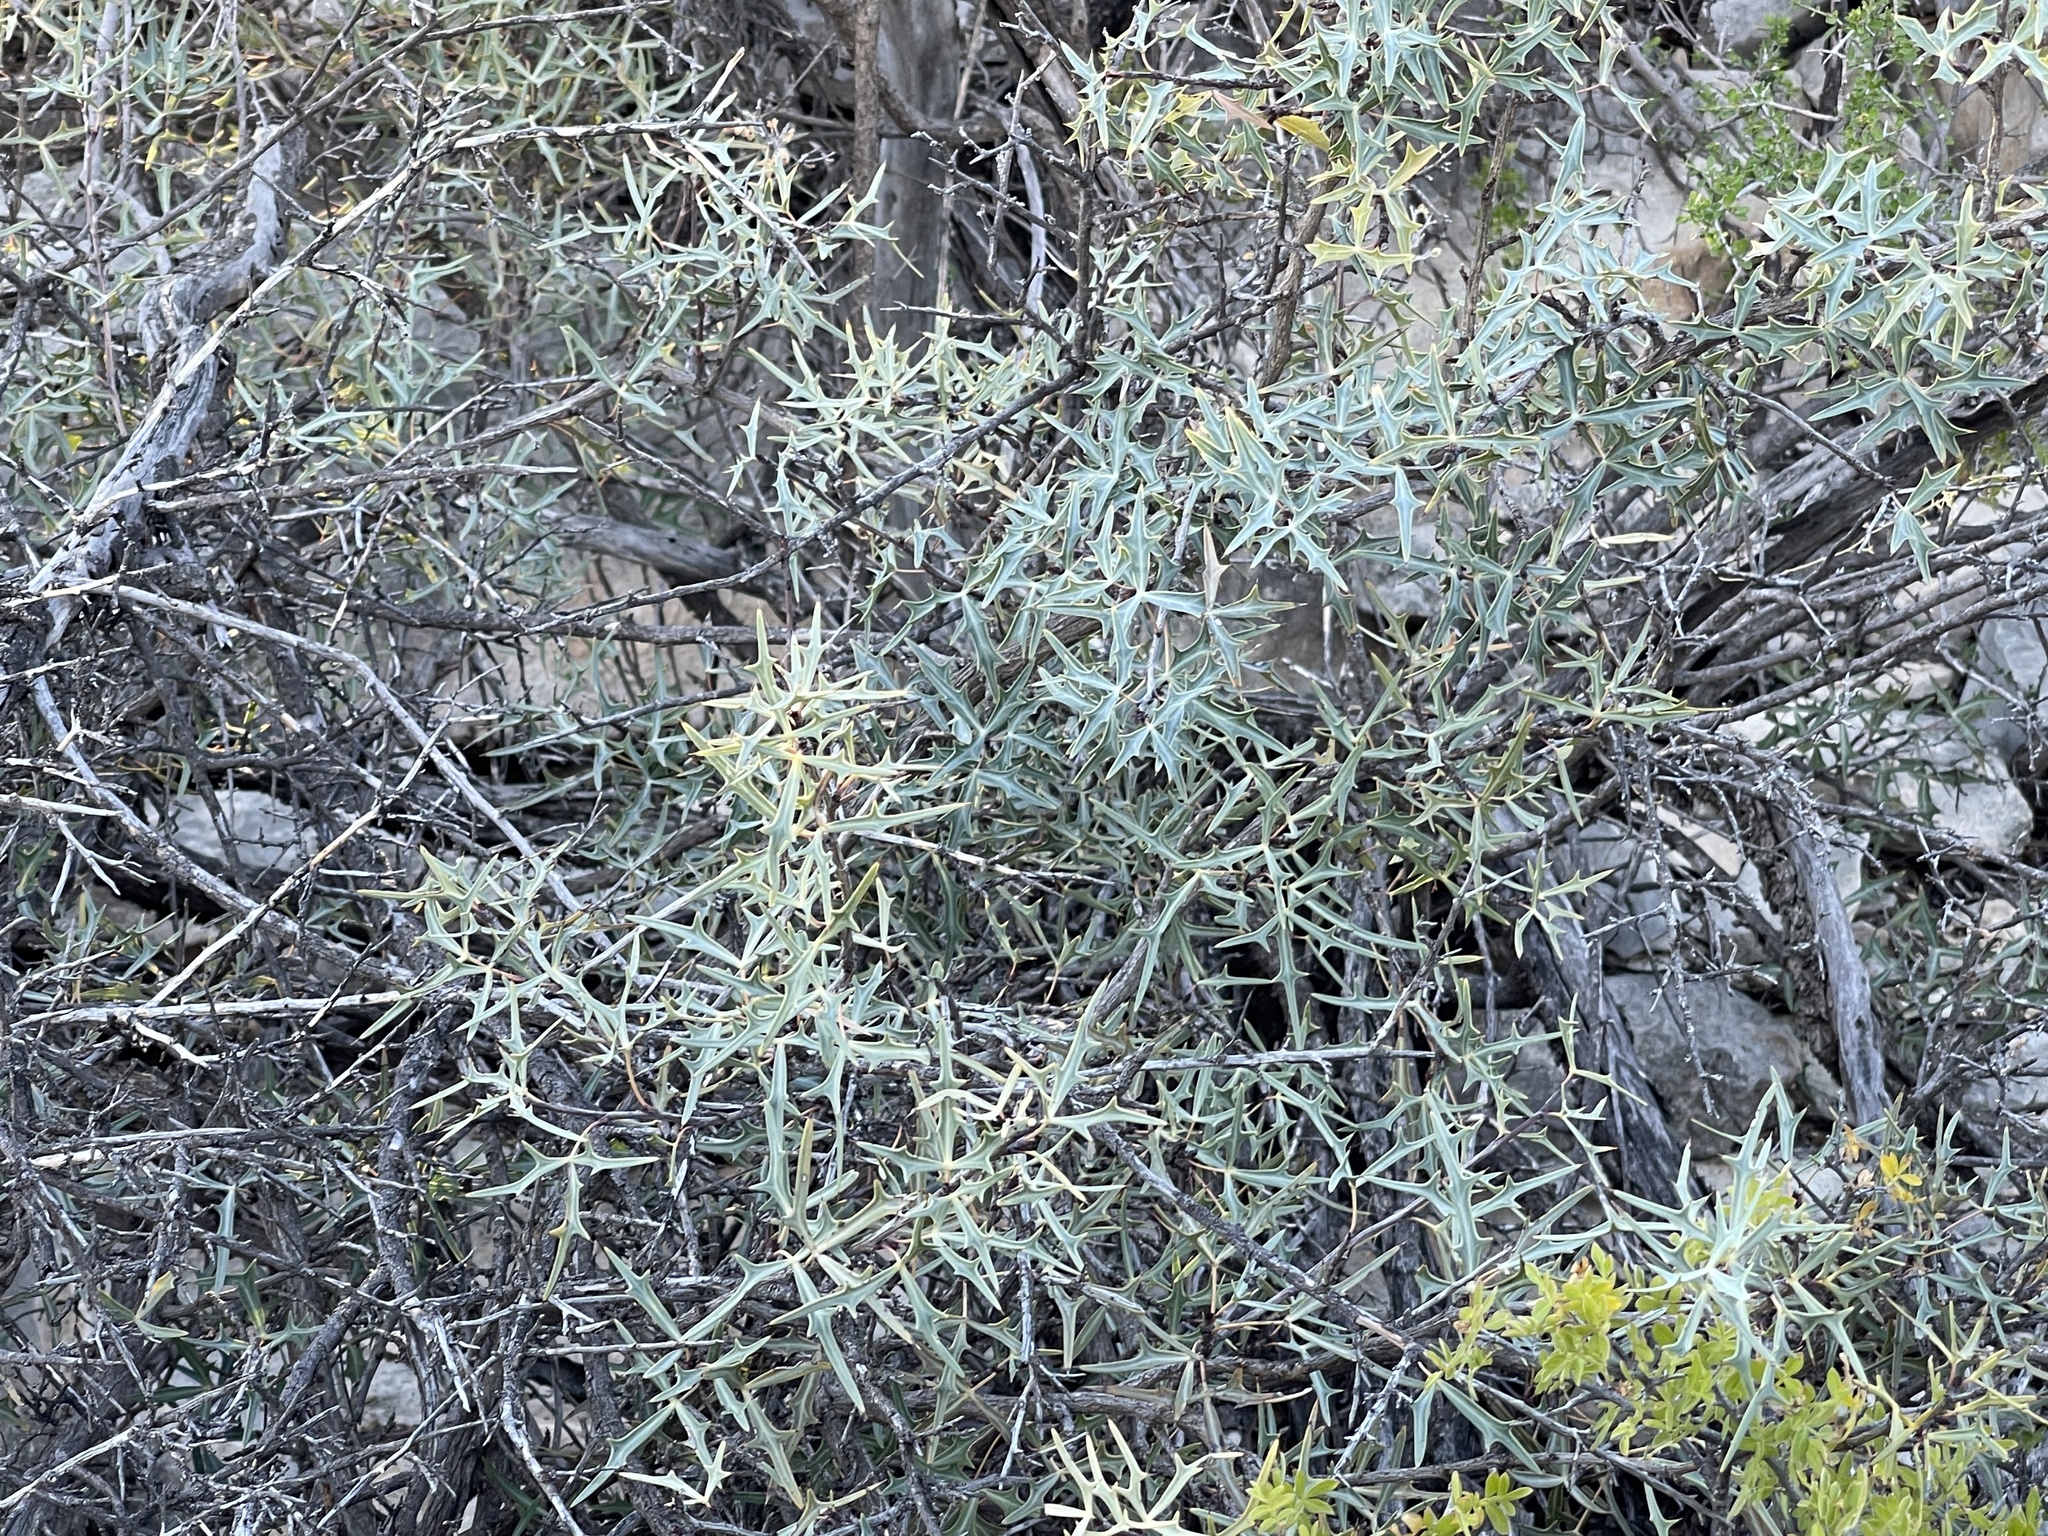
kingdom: Plantae
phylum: Tracheophyta
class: Magnoliopsida
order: Ranunculales
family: Berberidaceae
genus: Alloberberis
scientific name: Alloberberis trifoliolata
